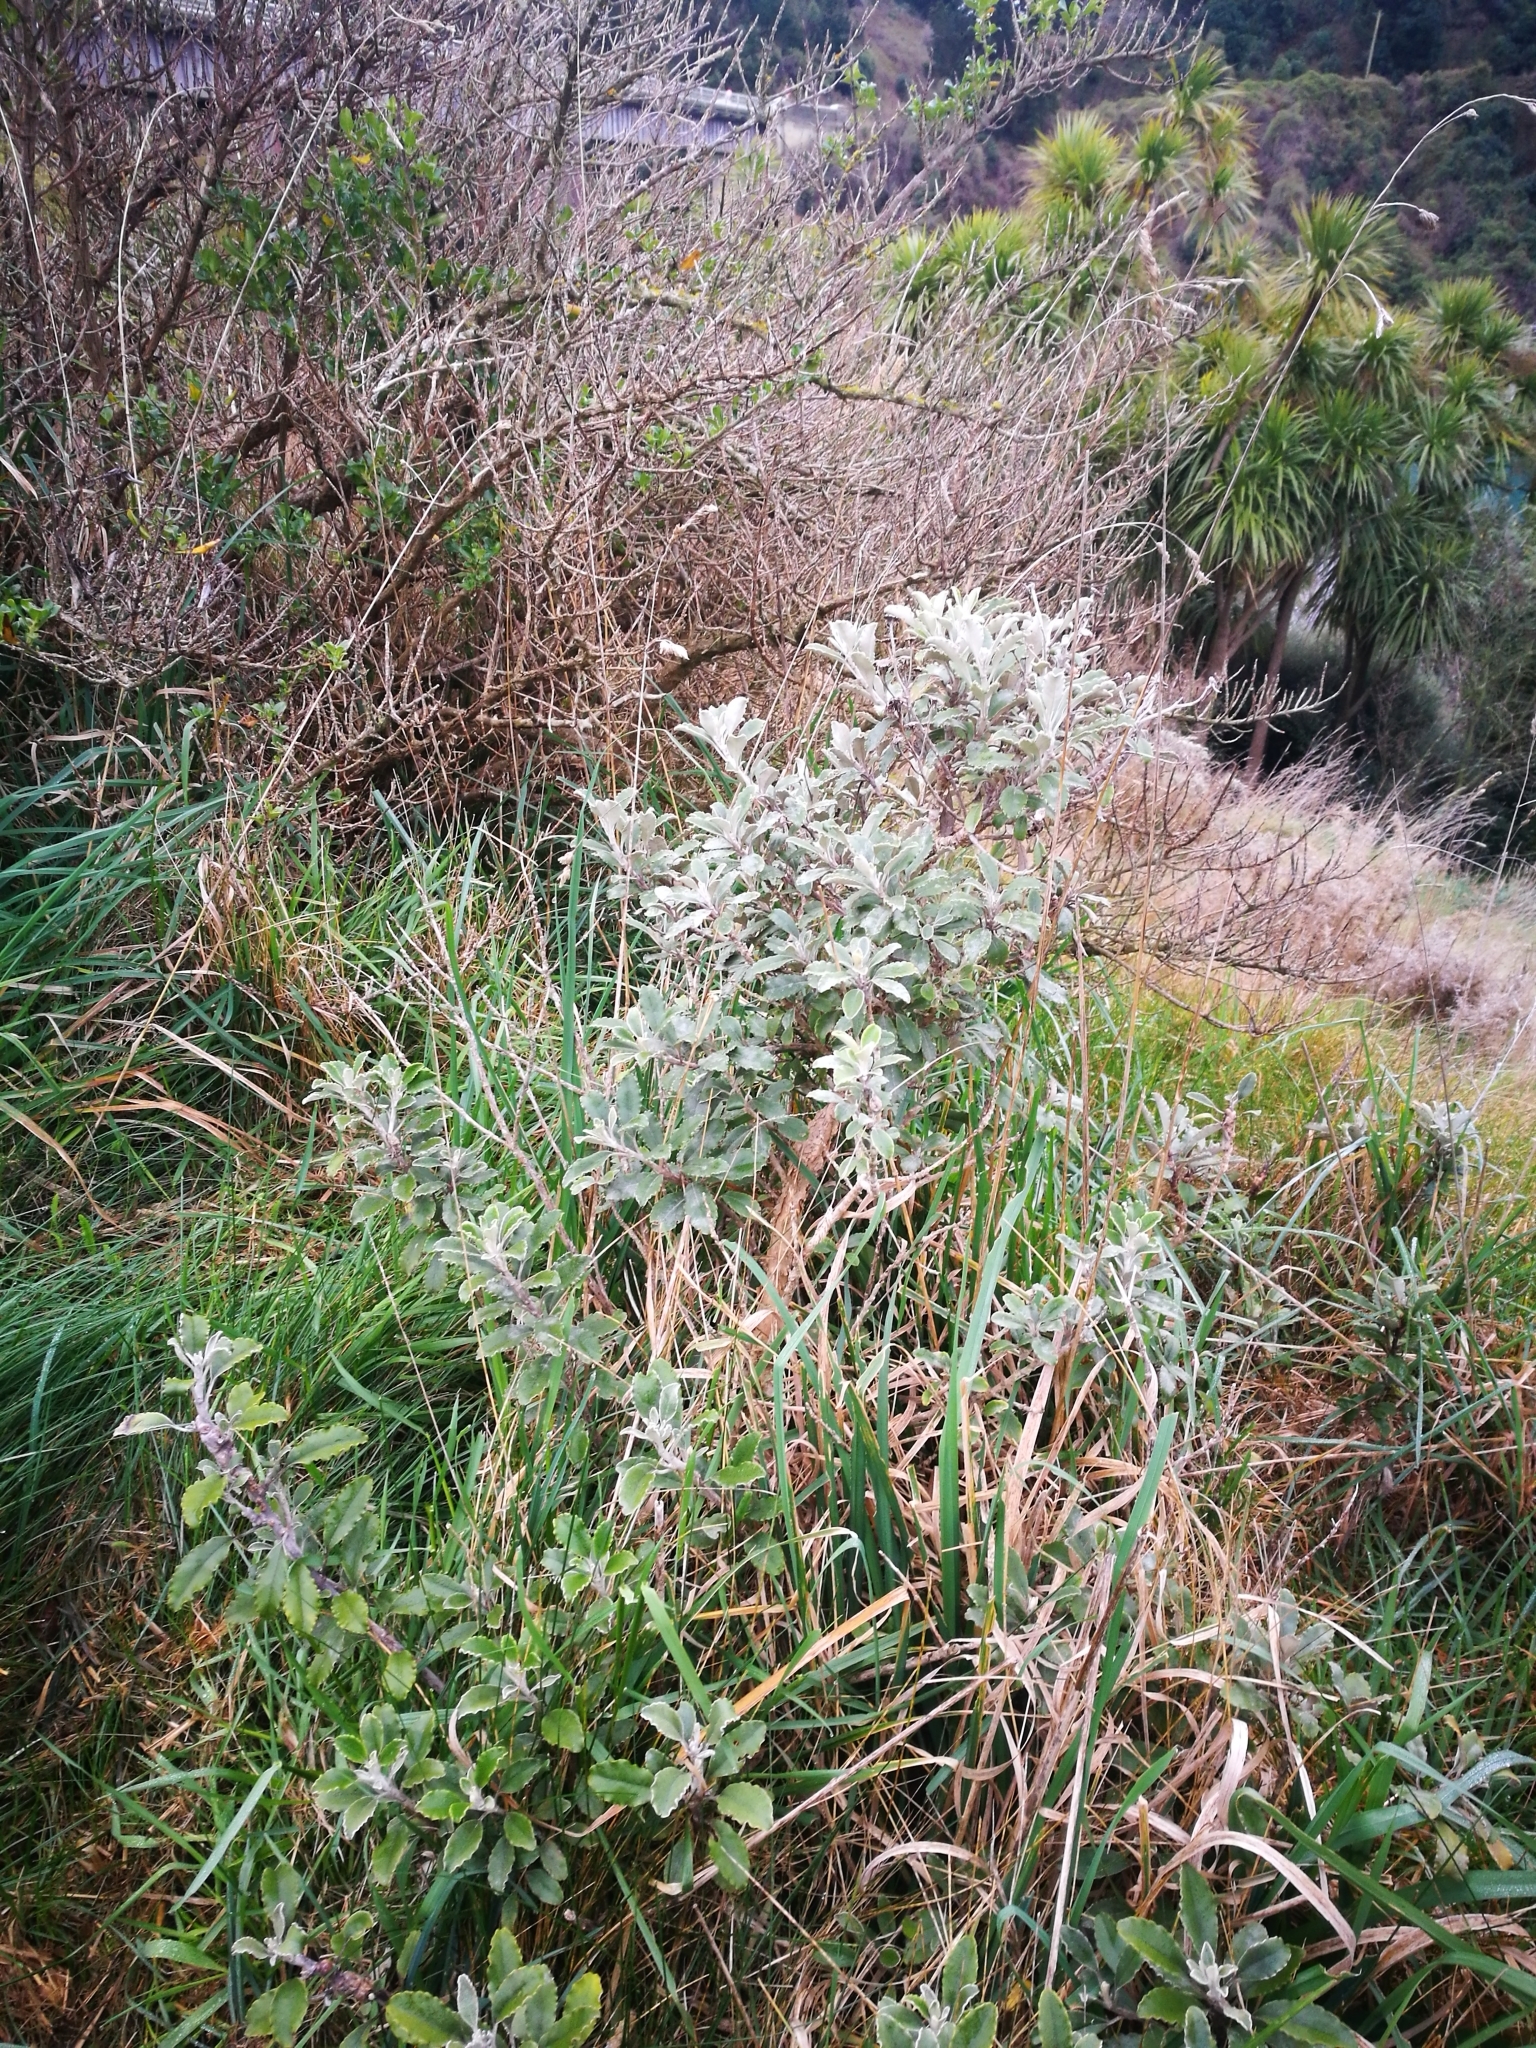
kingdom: Plantae
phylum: Tracheophyta
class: Magnoliopsida
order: Asterales
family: Asteraceae
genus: Brachyglottis
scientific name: Brachyglottis monroi
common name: Monro's ragwort
